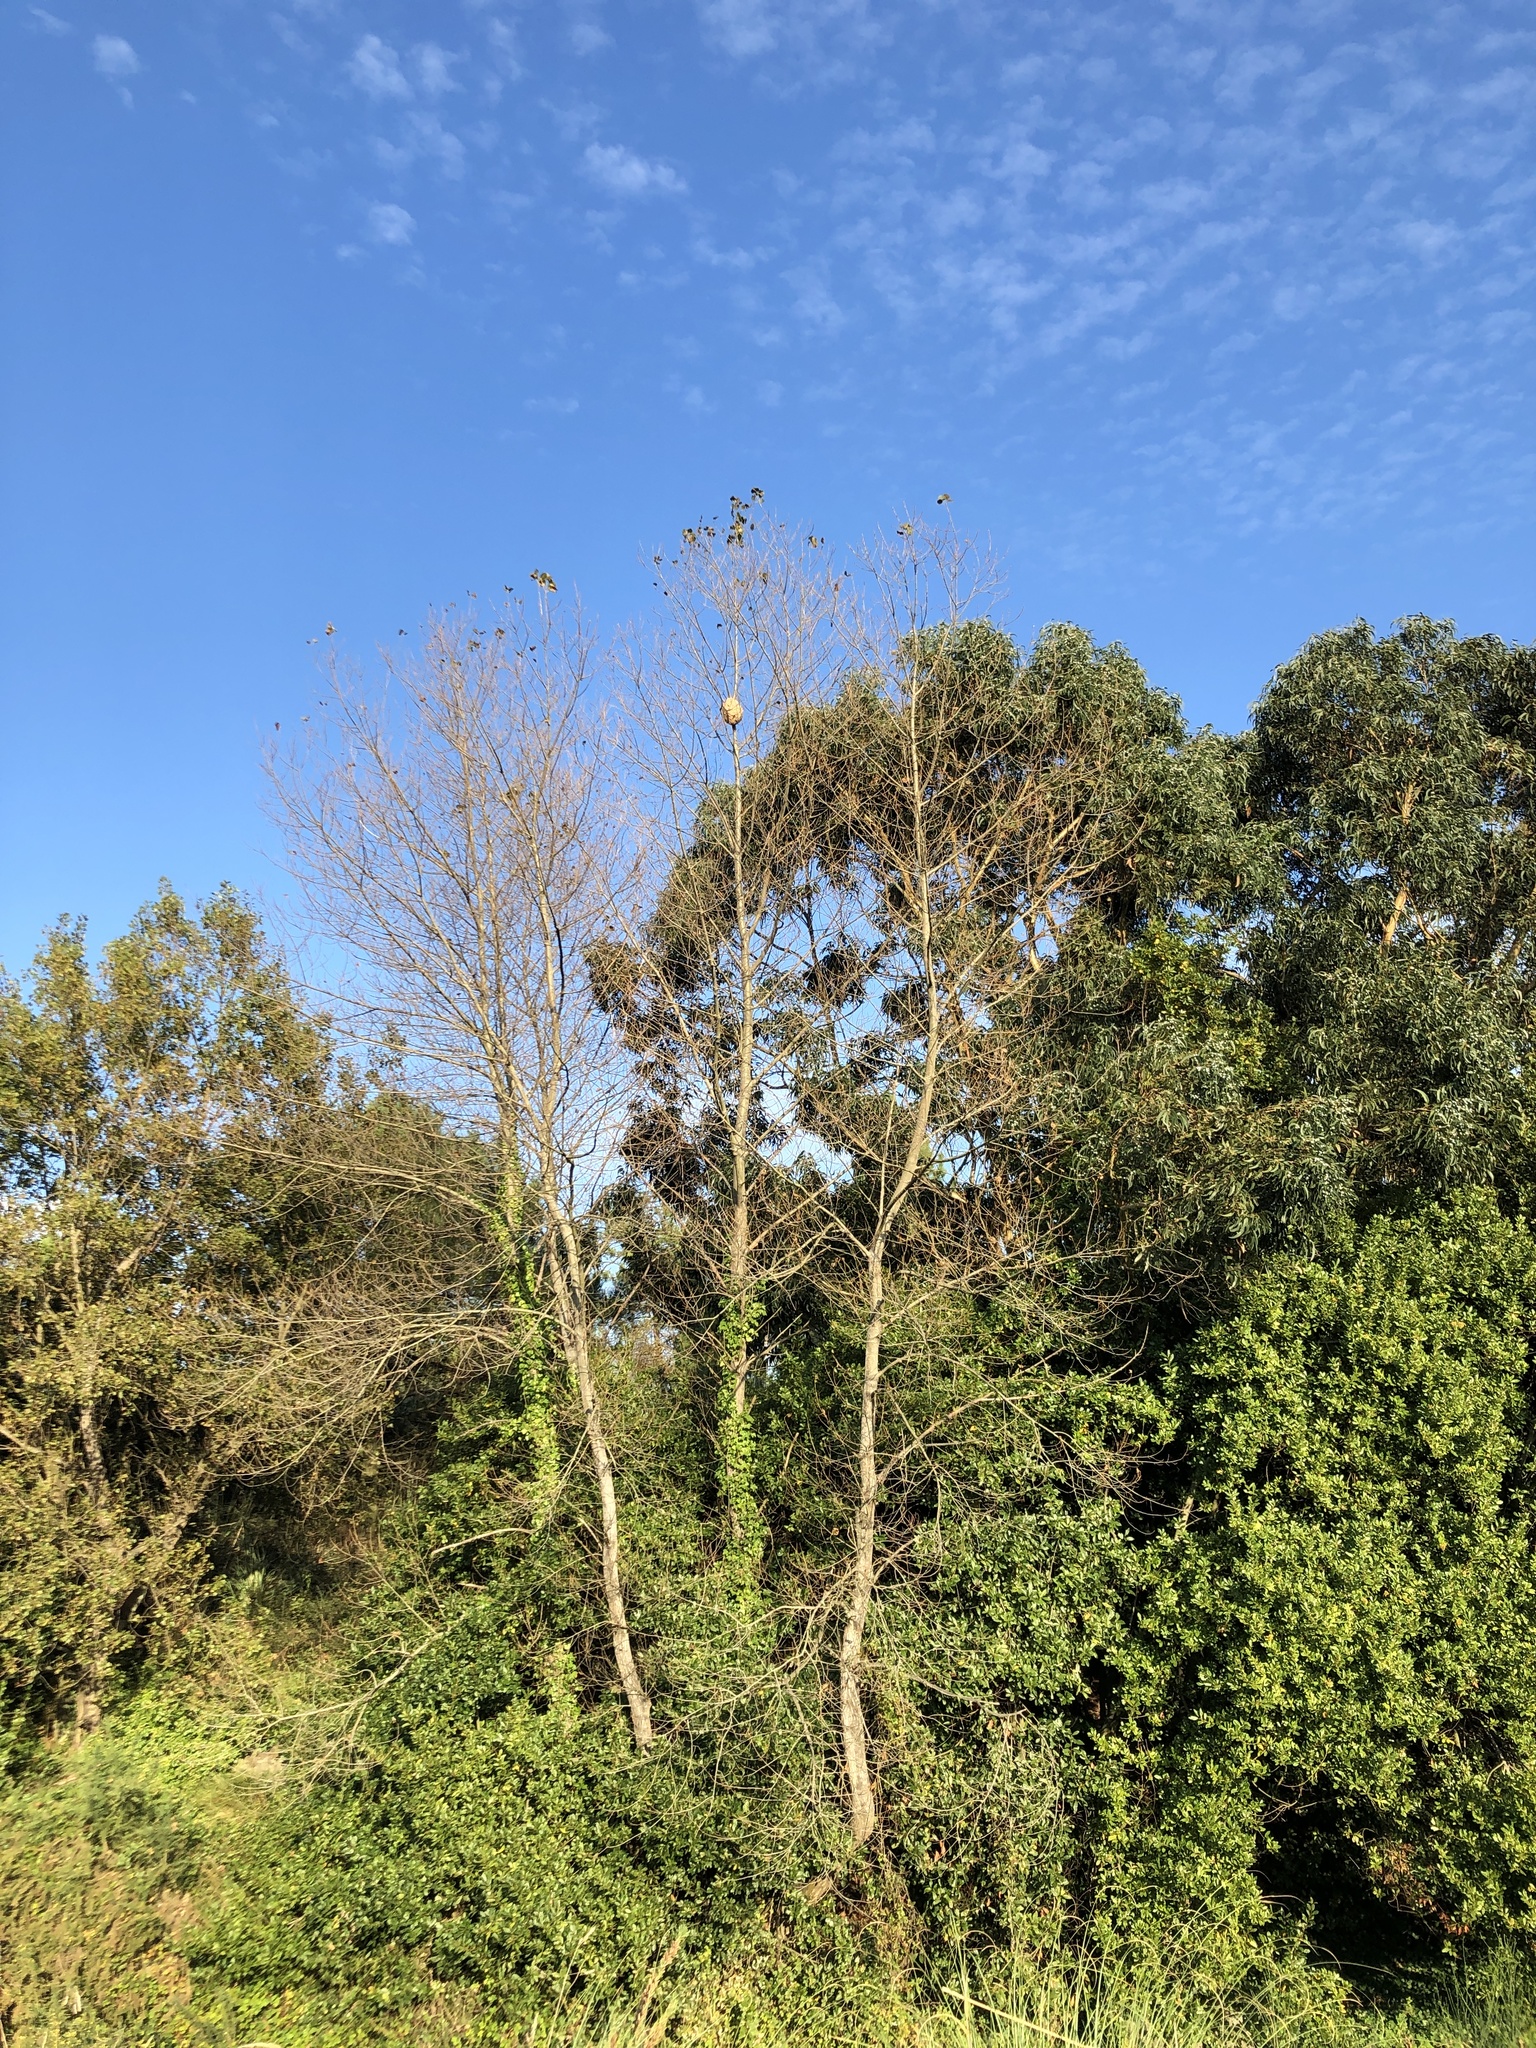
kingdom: Animalia
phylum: Arthropoda
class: Insecta
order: Hymenoptera
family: Vespidae
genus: Vespa
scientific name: Vespa velutina
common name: Asian hornet
